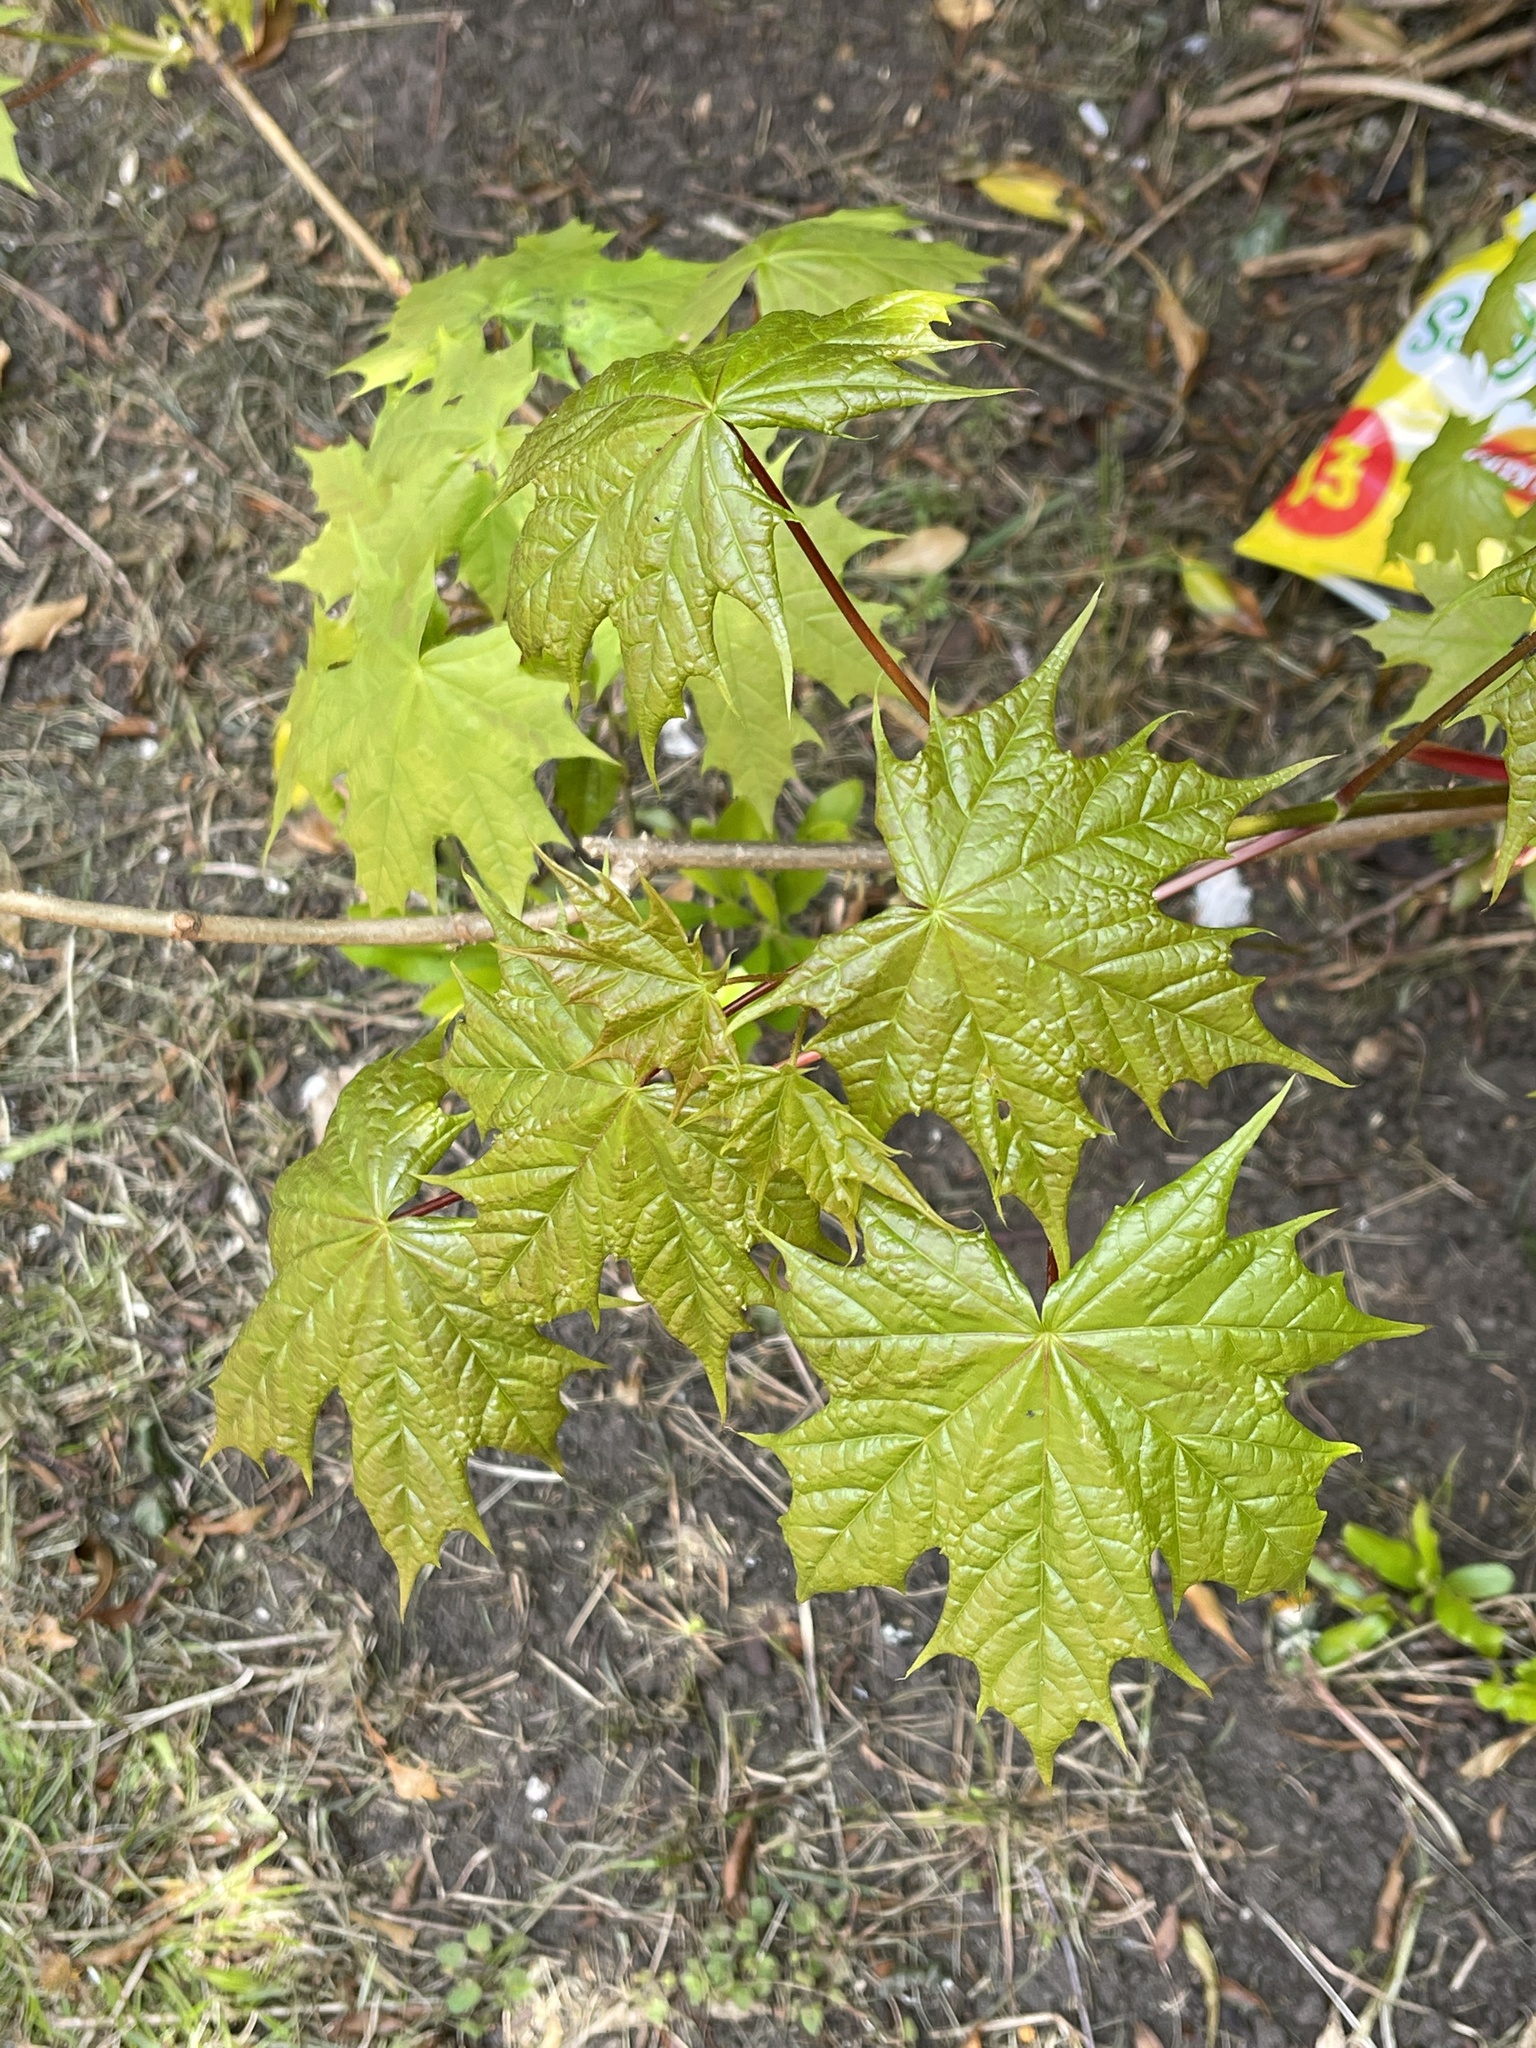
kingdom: Plantae
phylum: Tracheophyta
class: Magnoliopsida
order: Sapindales
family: Sapindaceae
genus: Acer
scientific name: Acer platanoides
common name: Norway maple
